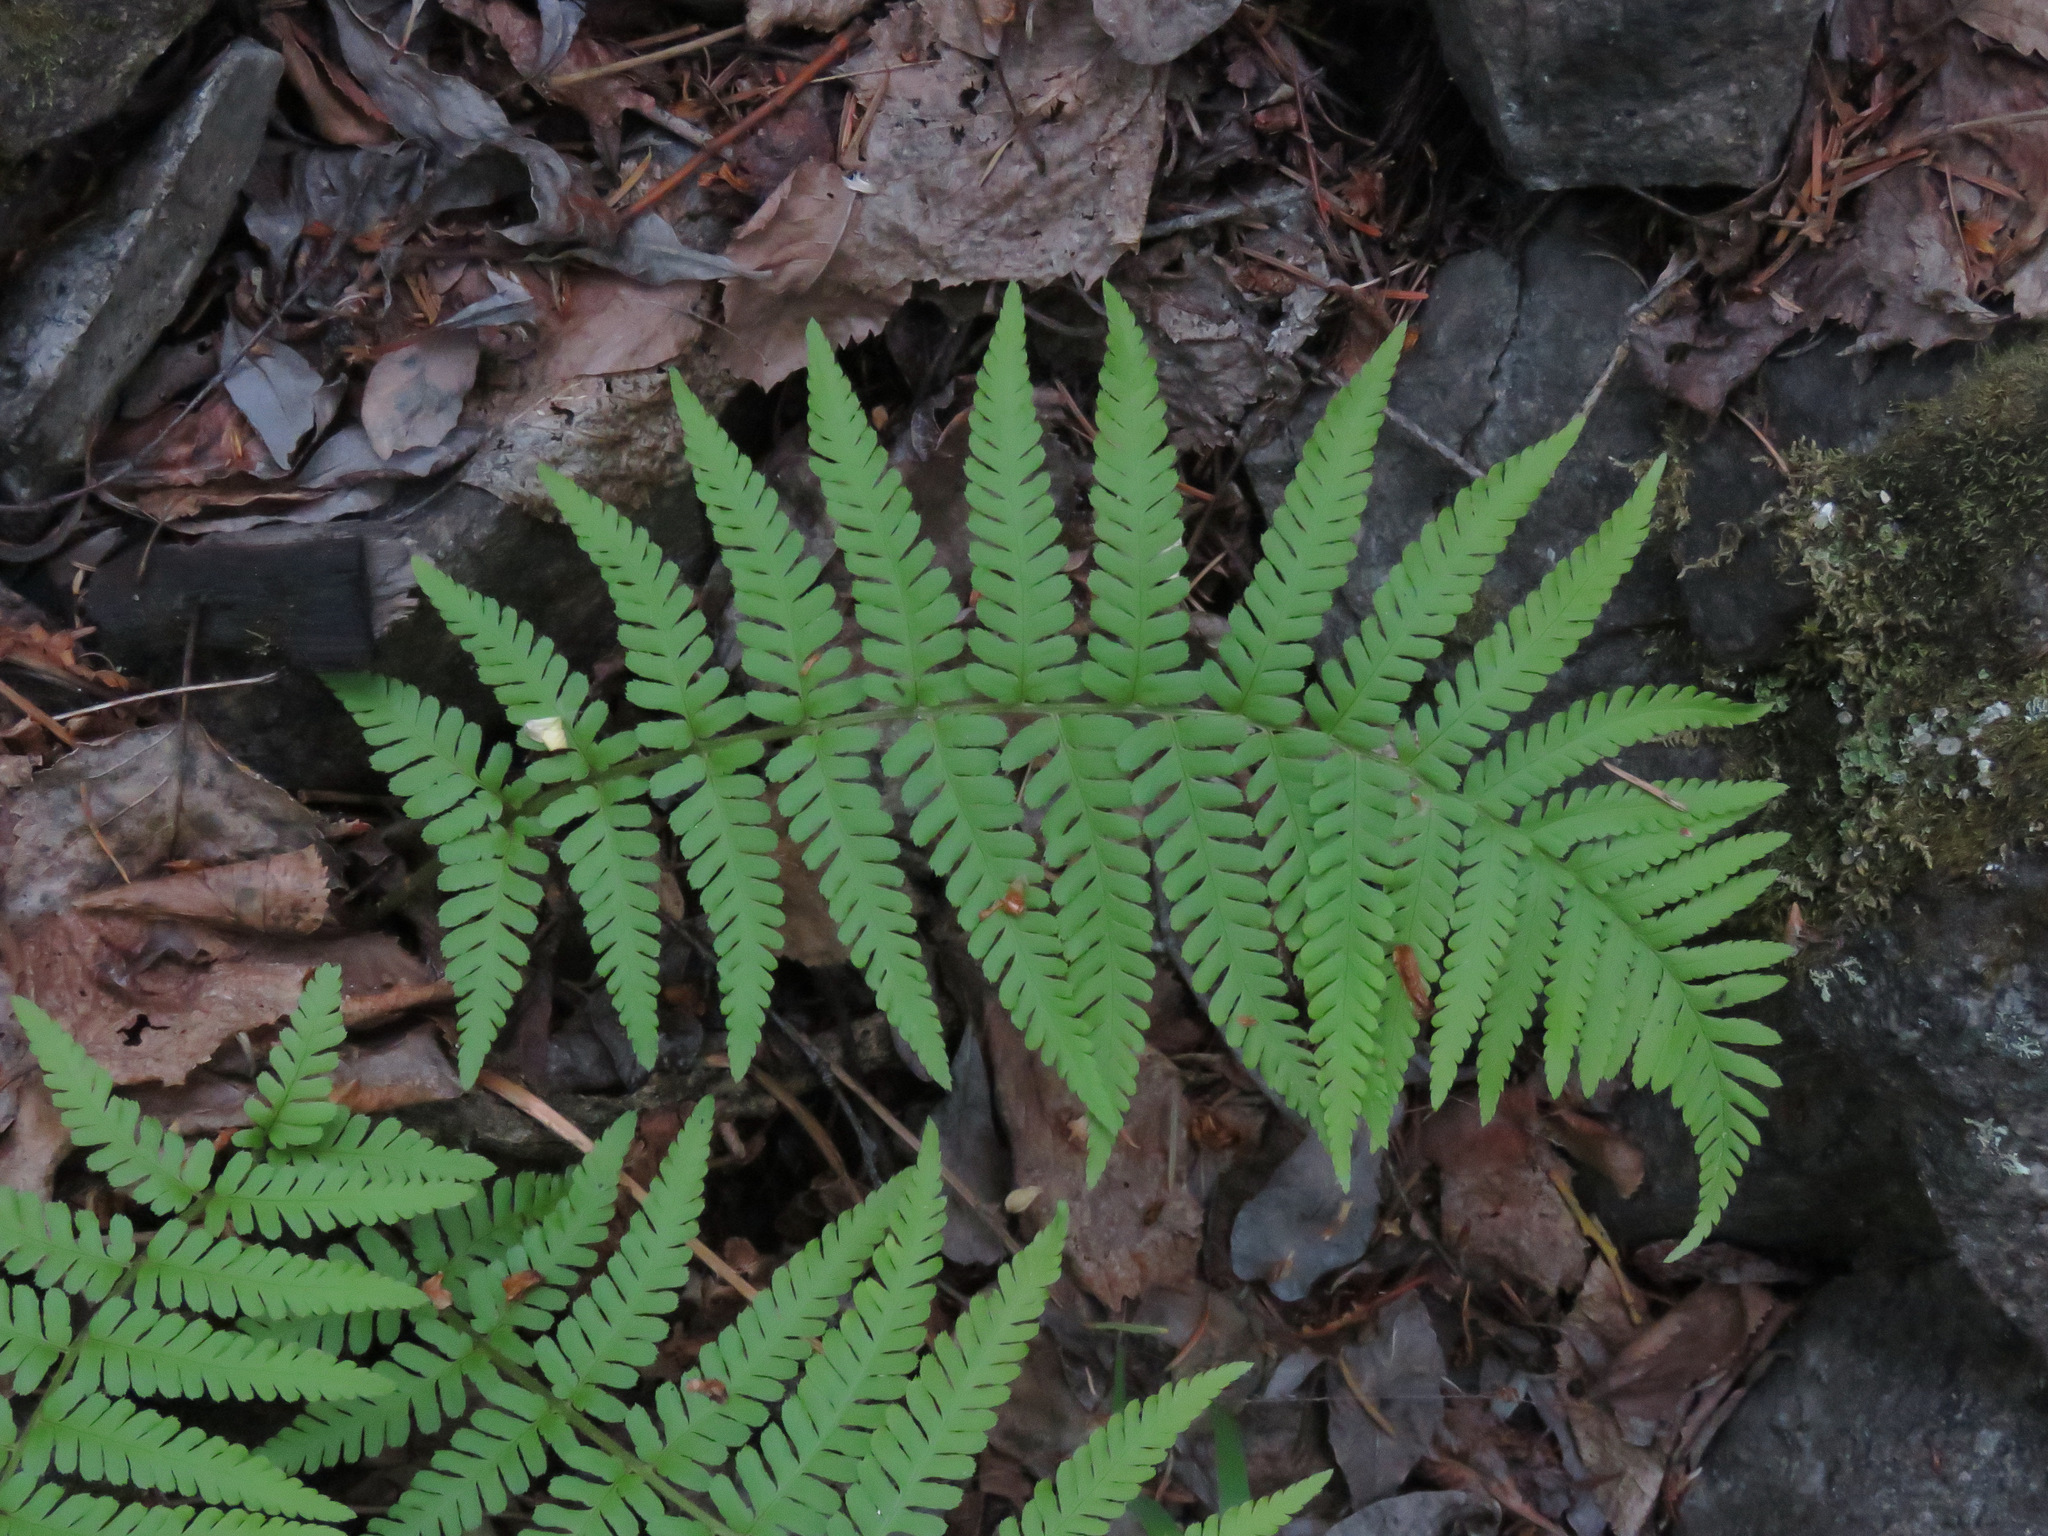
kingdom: Plantae
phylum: Tracheophyta
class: Polypodiopsida
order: Polypodiales
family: Dryopteridaceae
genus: Dryopteris
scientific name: Dryopteris filix-mas
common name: Male fern
